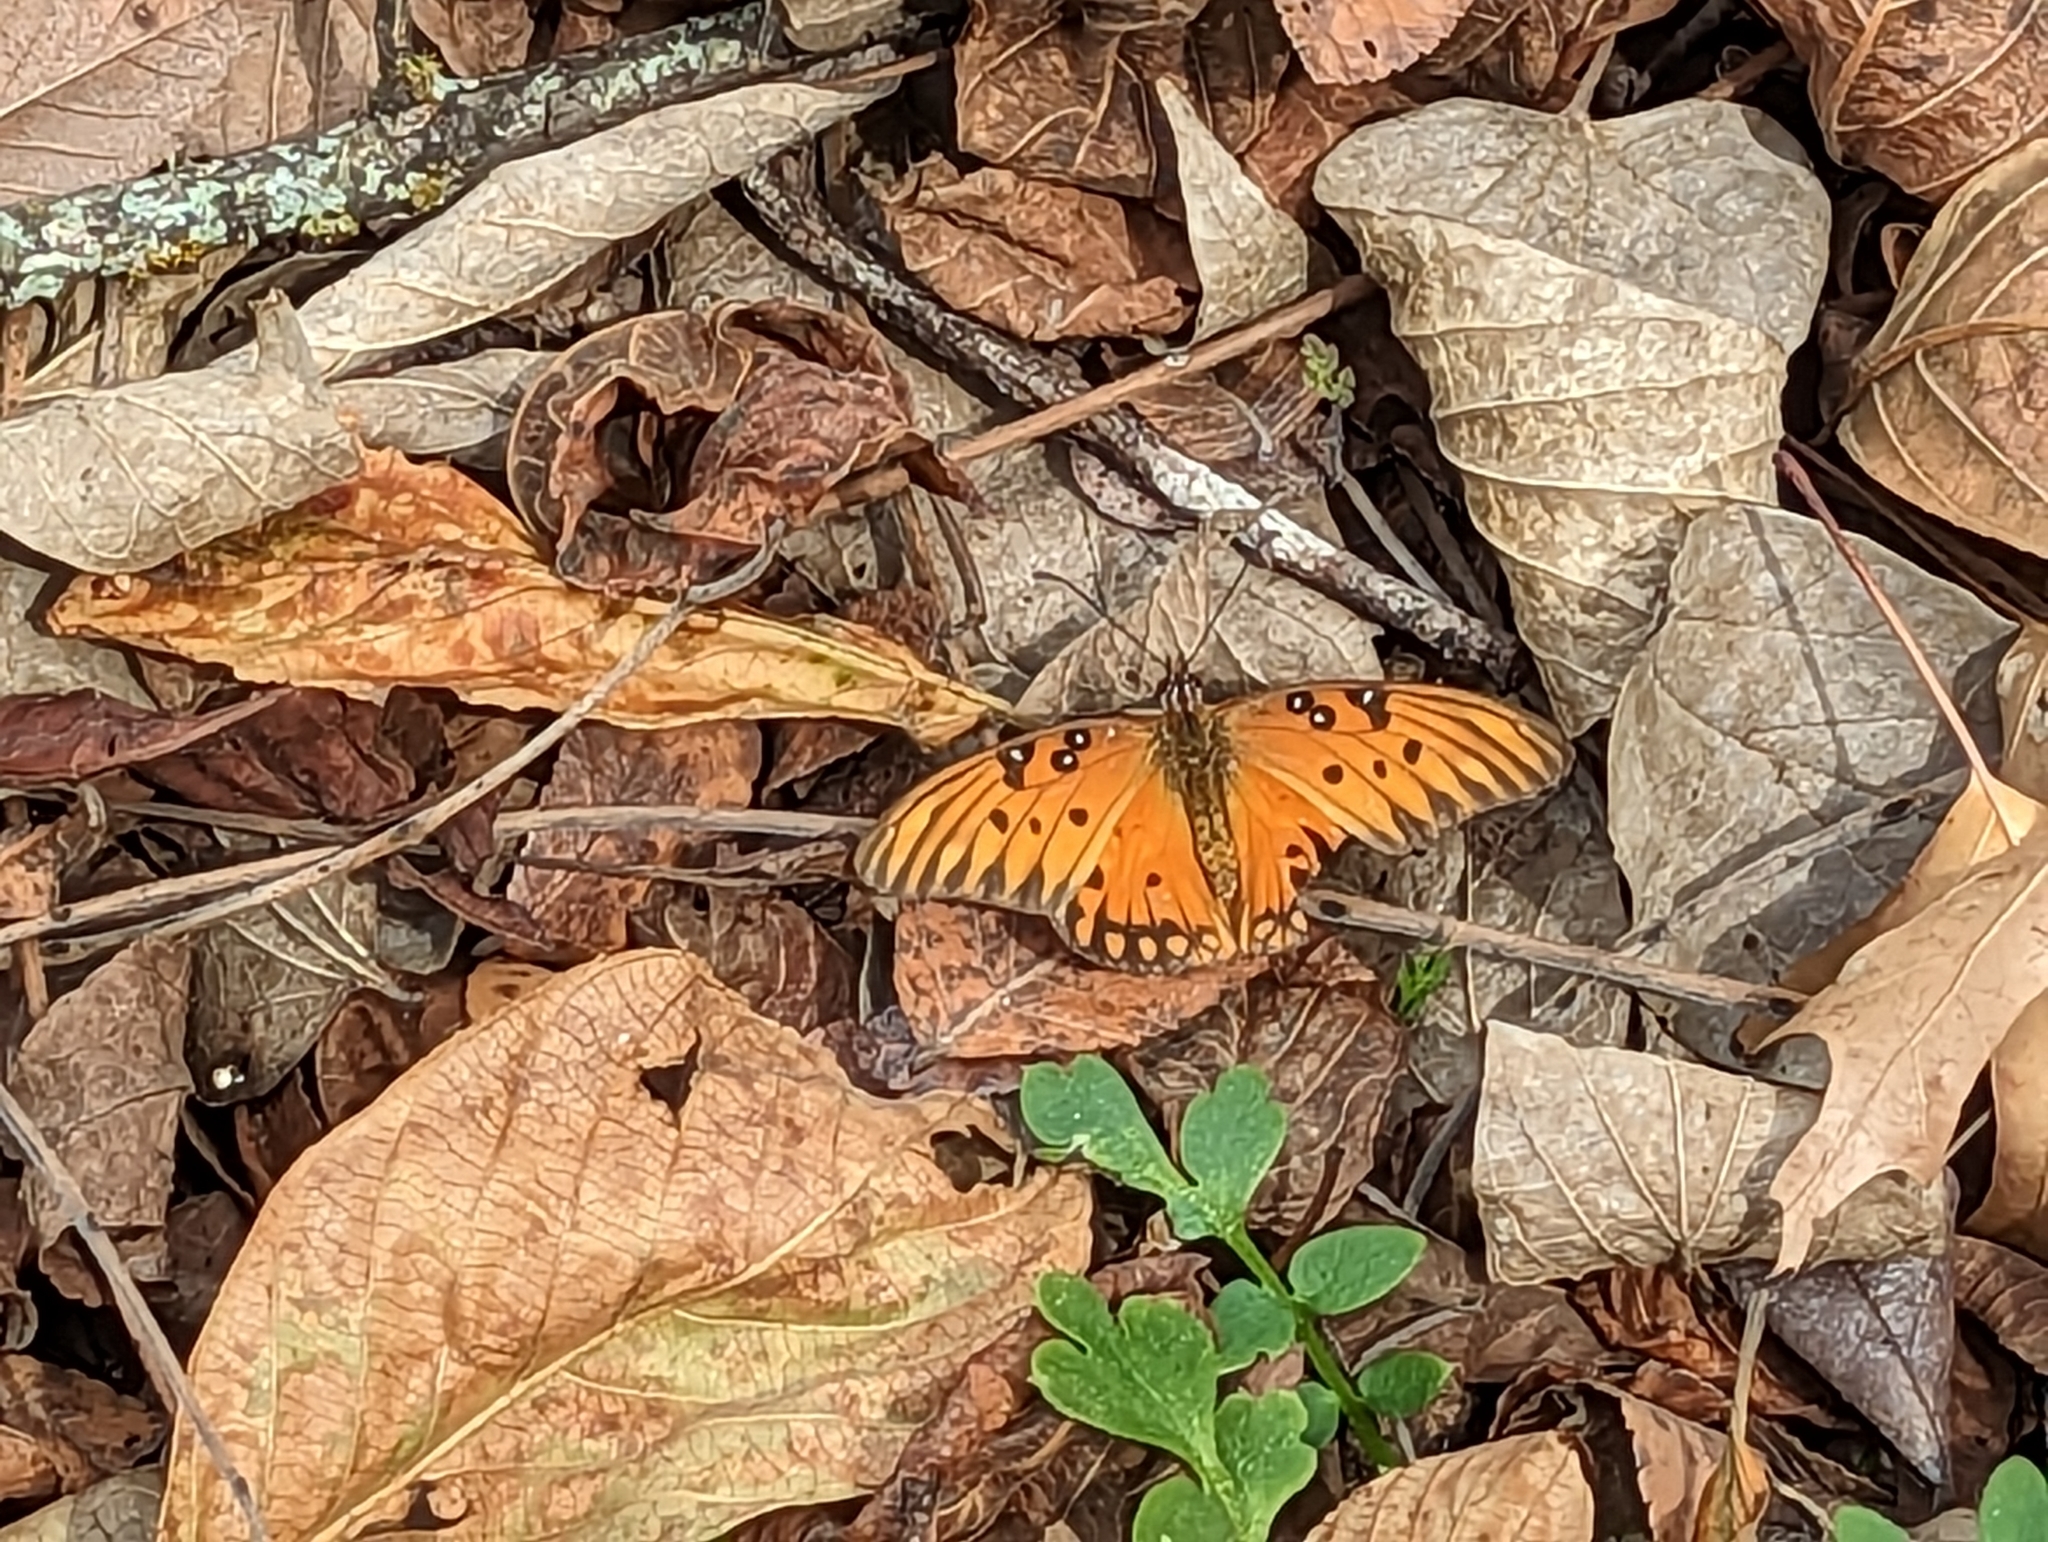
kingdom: Animalia
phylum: Arthropoda
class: Insecta
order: Lepidoptera
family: Nymphalidae
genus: Dione
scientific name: Dione vanillae
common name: Gulf fritillary
